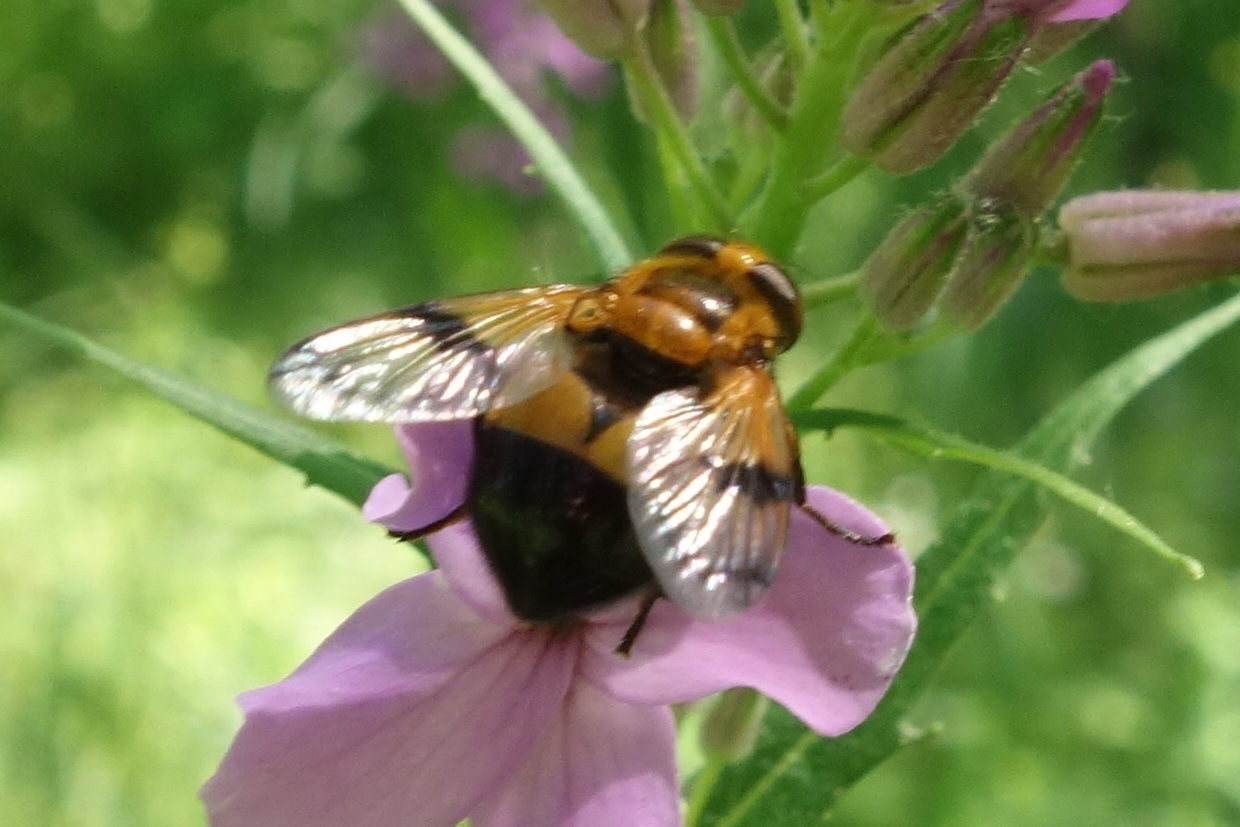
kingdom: Animalia
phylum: Arthropoda
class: Insecta
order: Diptera
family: Syrphidae
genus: Volucella
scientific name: Volucella inflata
